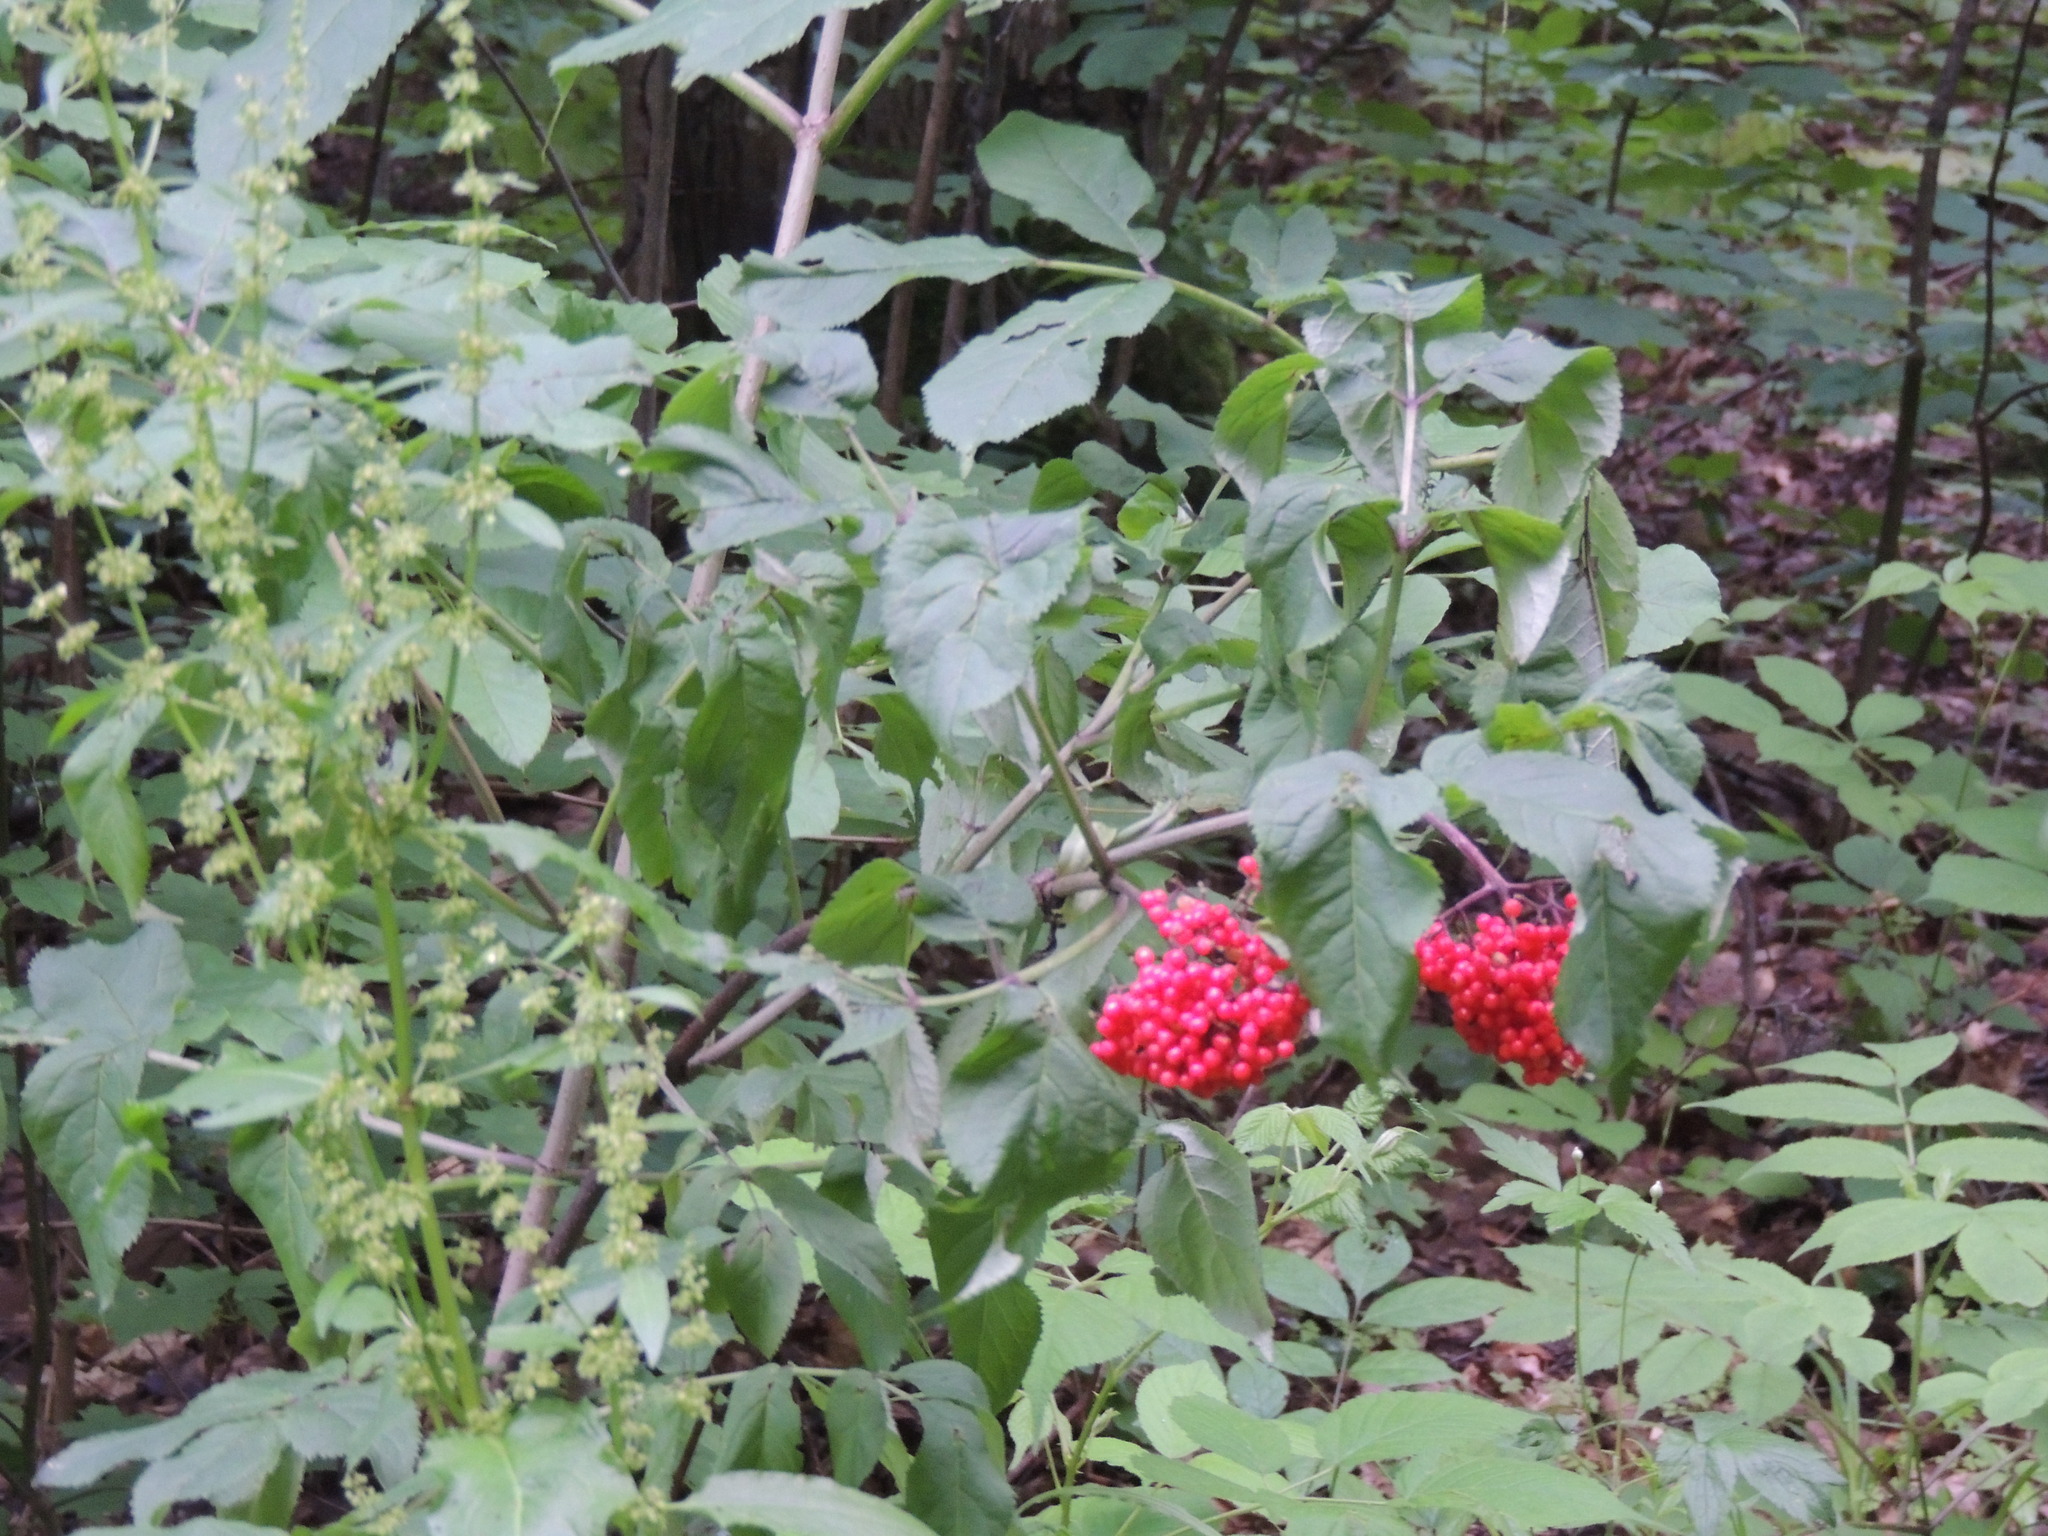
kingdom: Plantae
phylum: Tracheophyta
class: Magnoliopsida
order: Dipsacales
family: Viburnaceae
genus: Sambucus
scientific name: Sambucus racemosa
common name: Red-berried elder
